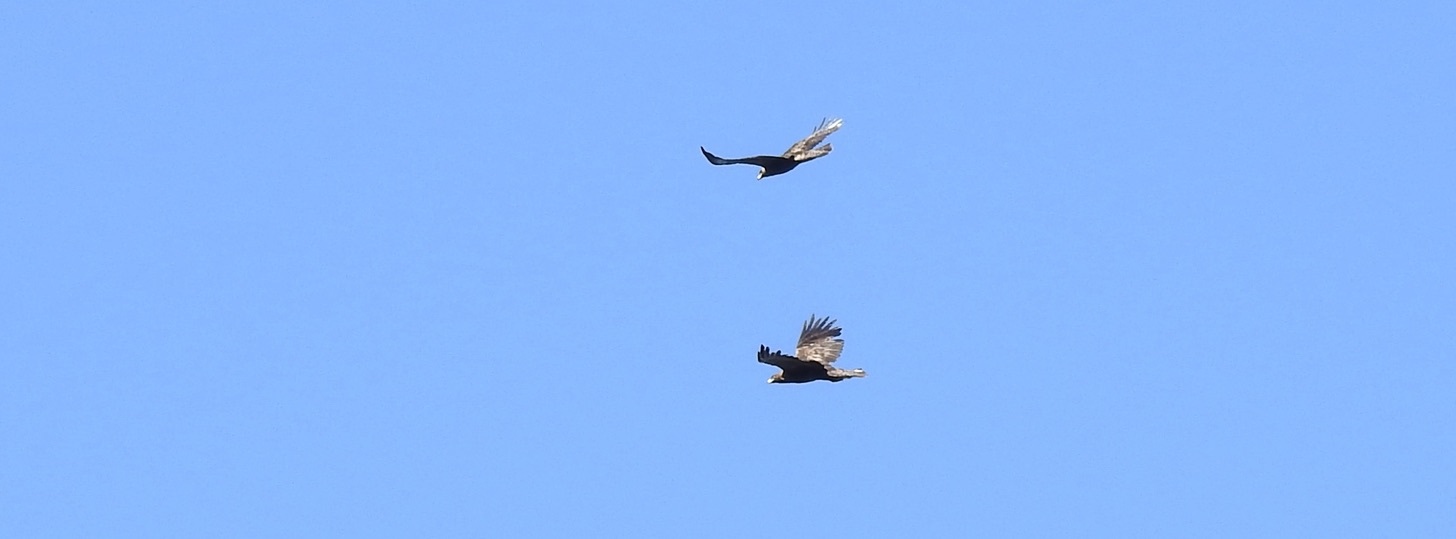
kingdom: Animalia
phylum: Chordata
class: Aves
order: Accipitriformes
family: Accipitridae
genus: Aquila
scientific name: Aquila chrysaetos
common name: Golden eagle
